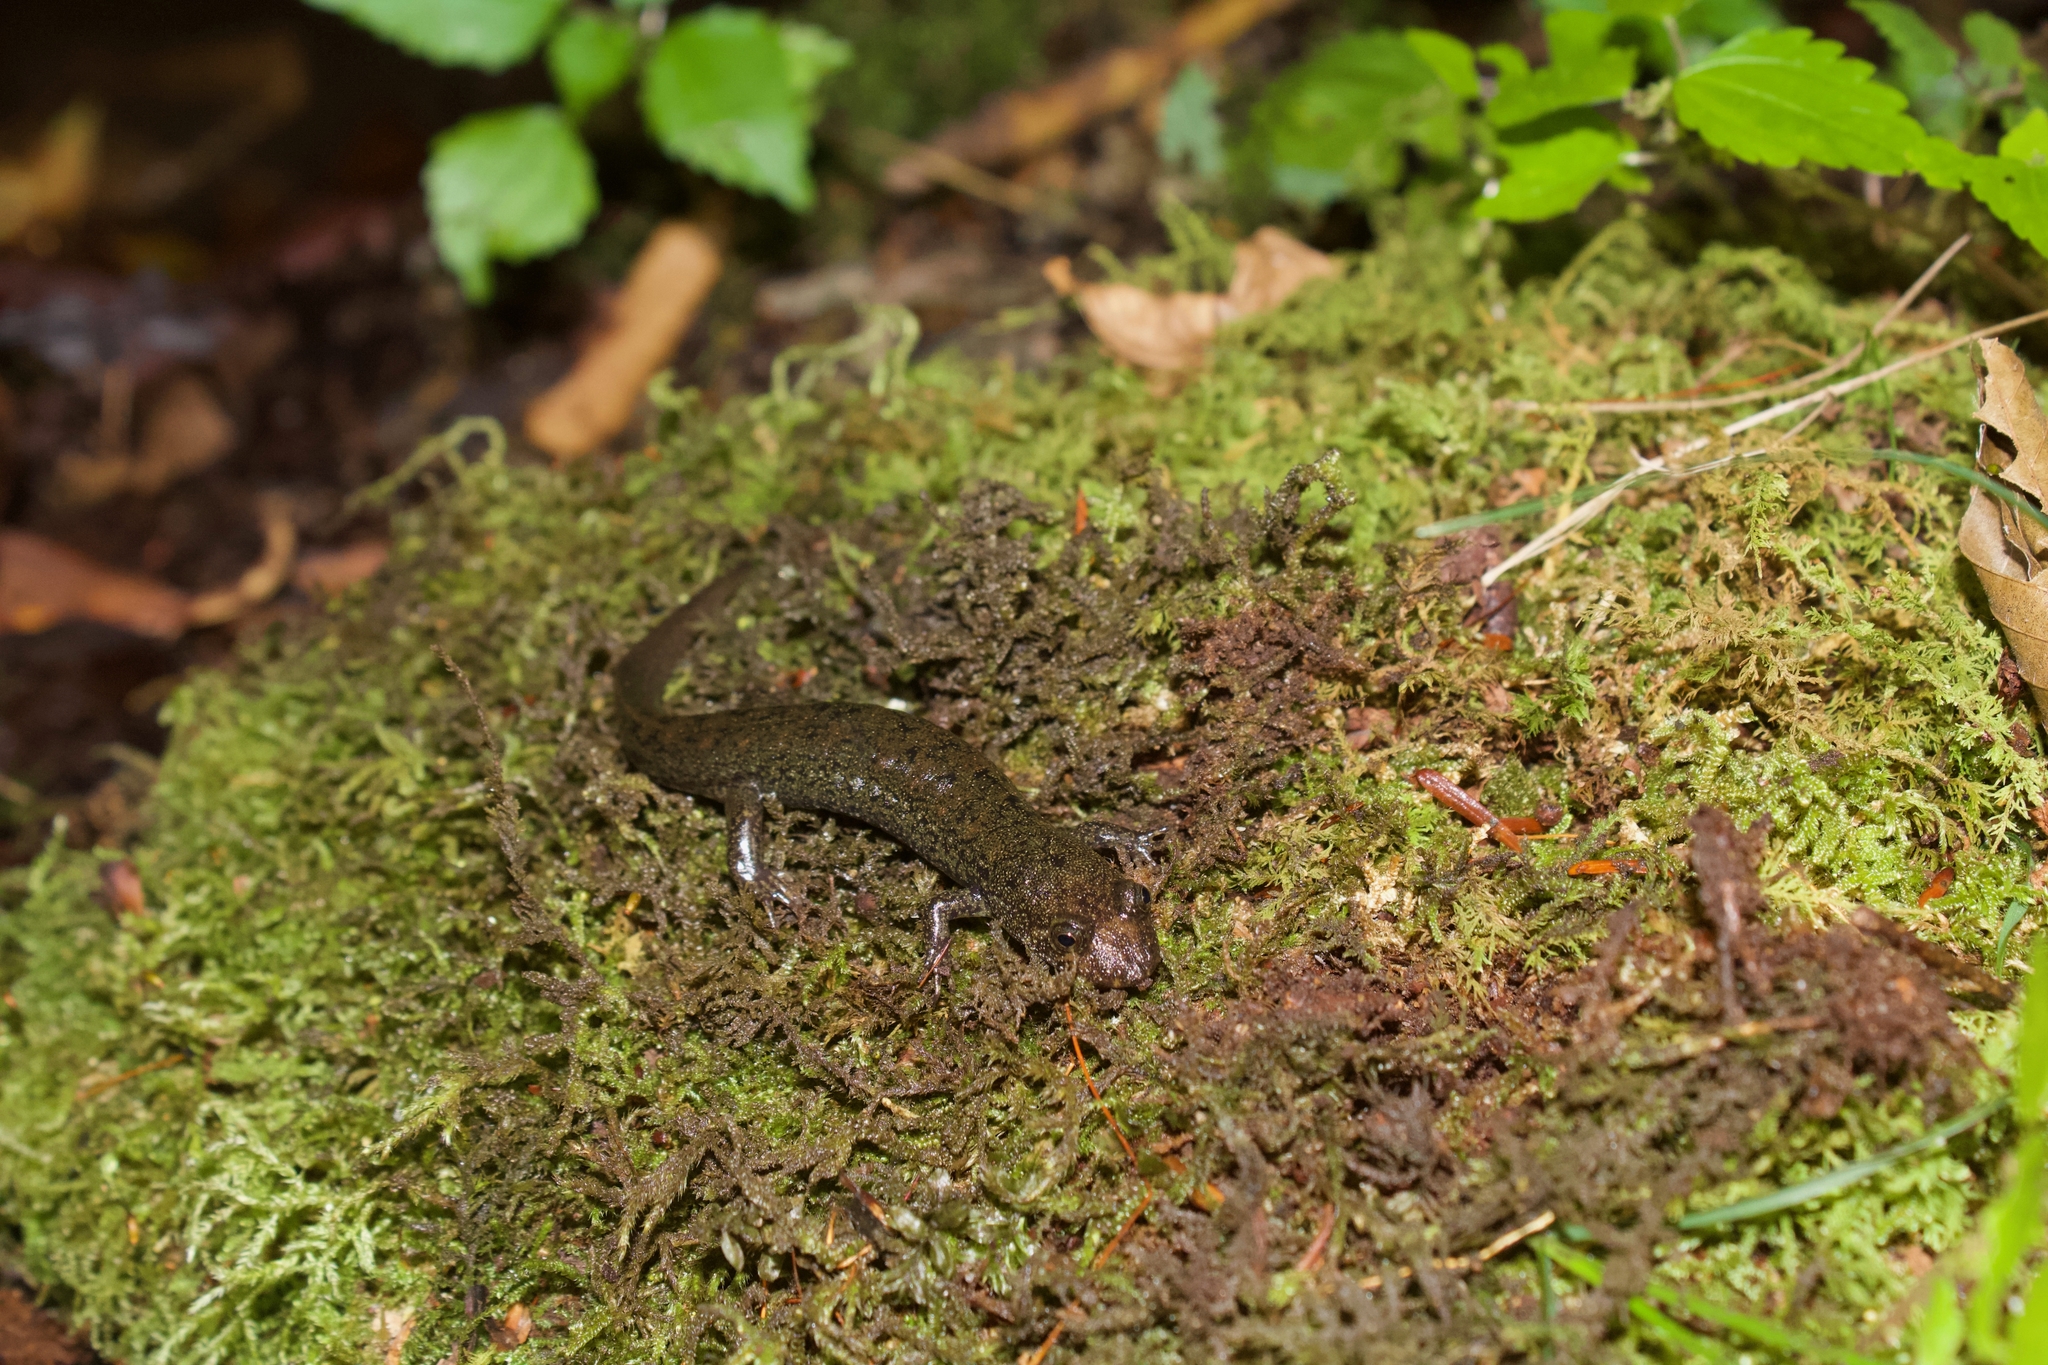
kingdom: Animalia
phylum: Chordata
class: Amphibia
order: Caudata
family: Plethodontidae
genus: Desmognathus
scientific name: Desmognathus
